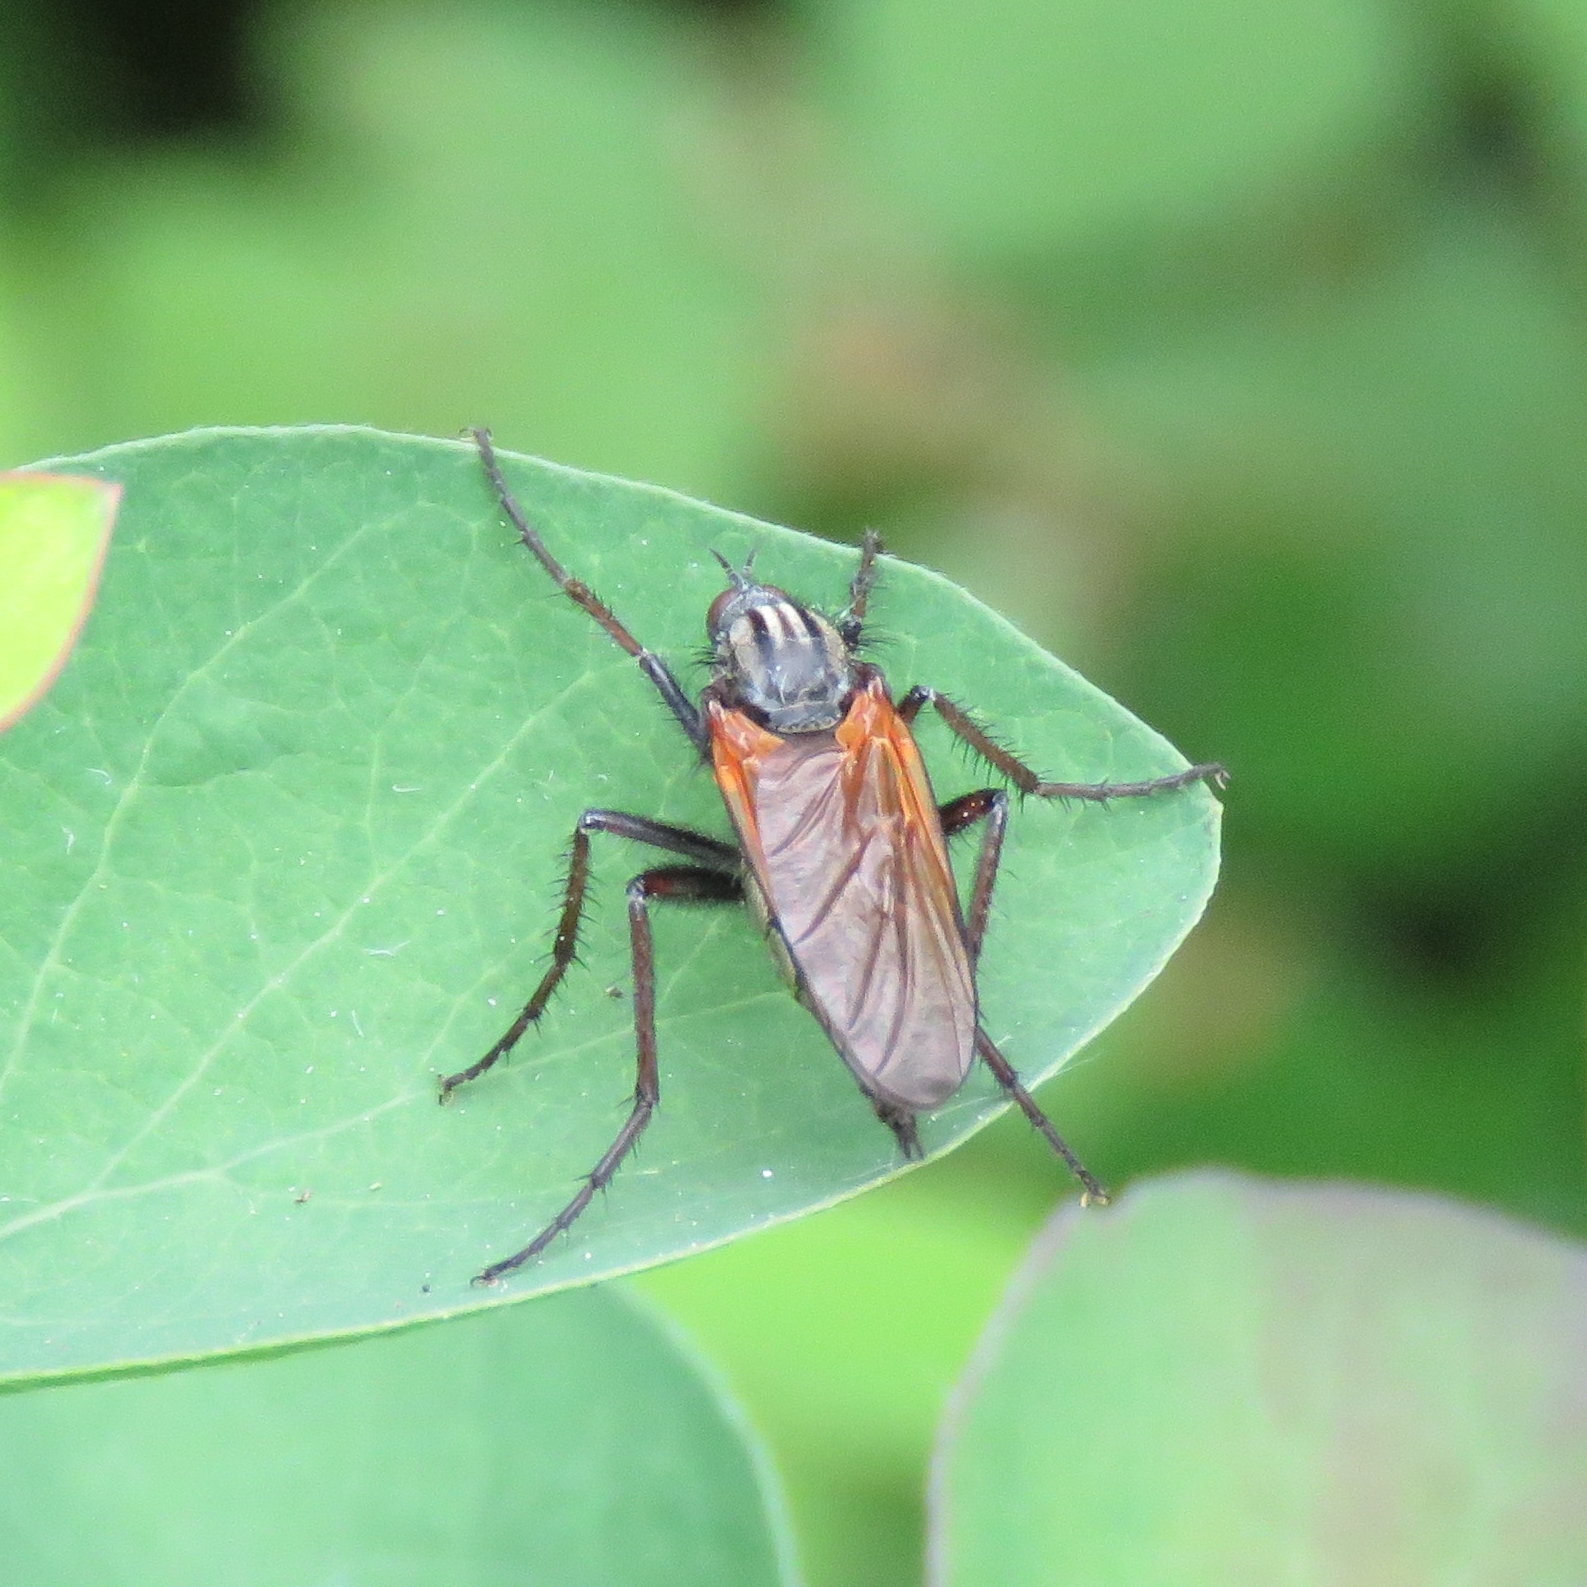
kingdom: Animalia
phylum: Arthropoda
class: Insecta
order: Diptera
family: Empididae
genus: Empis
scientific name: Empis tessellata
